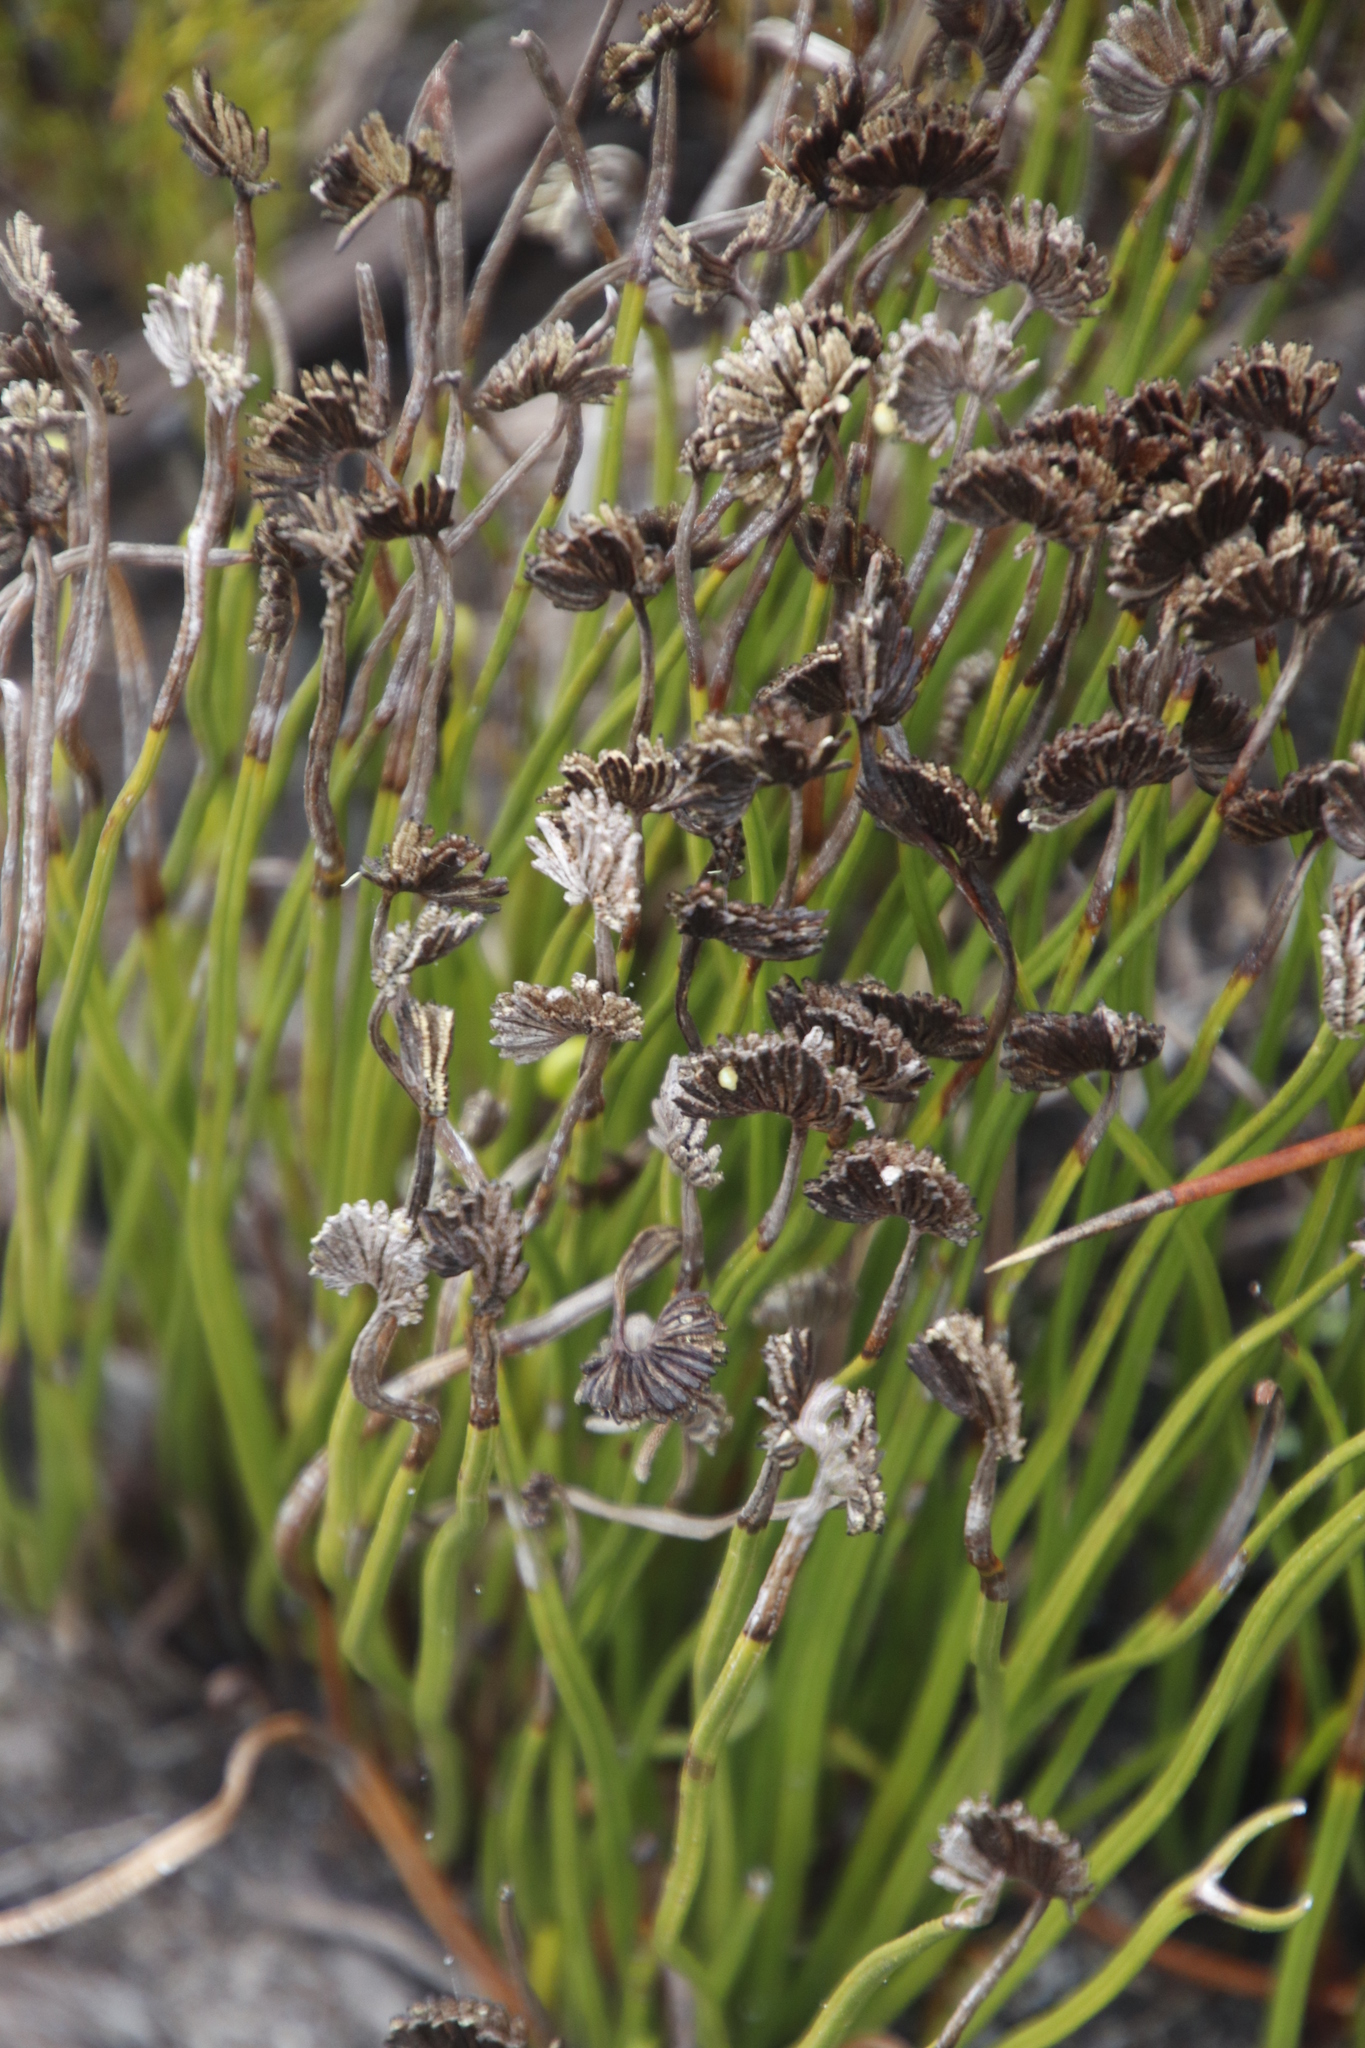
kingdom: Plantae
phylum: Tracheophyta
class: Polypodiopsida
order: Schizaeales
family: Schizaeaceae
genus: Schizaea
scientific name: Schizaea pectinata
